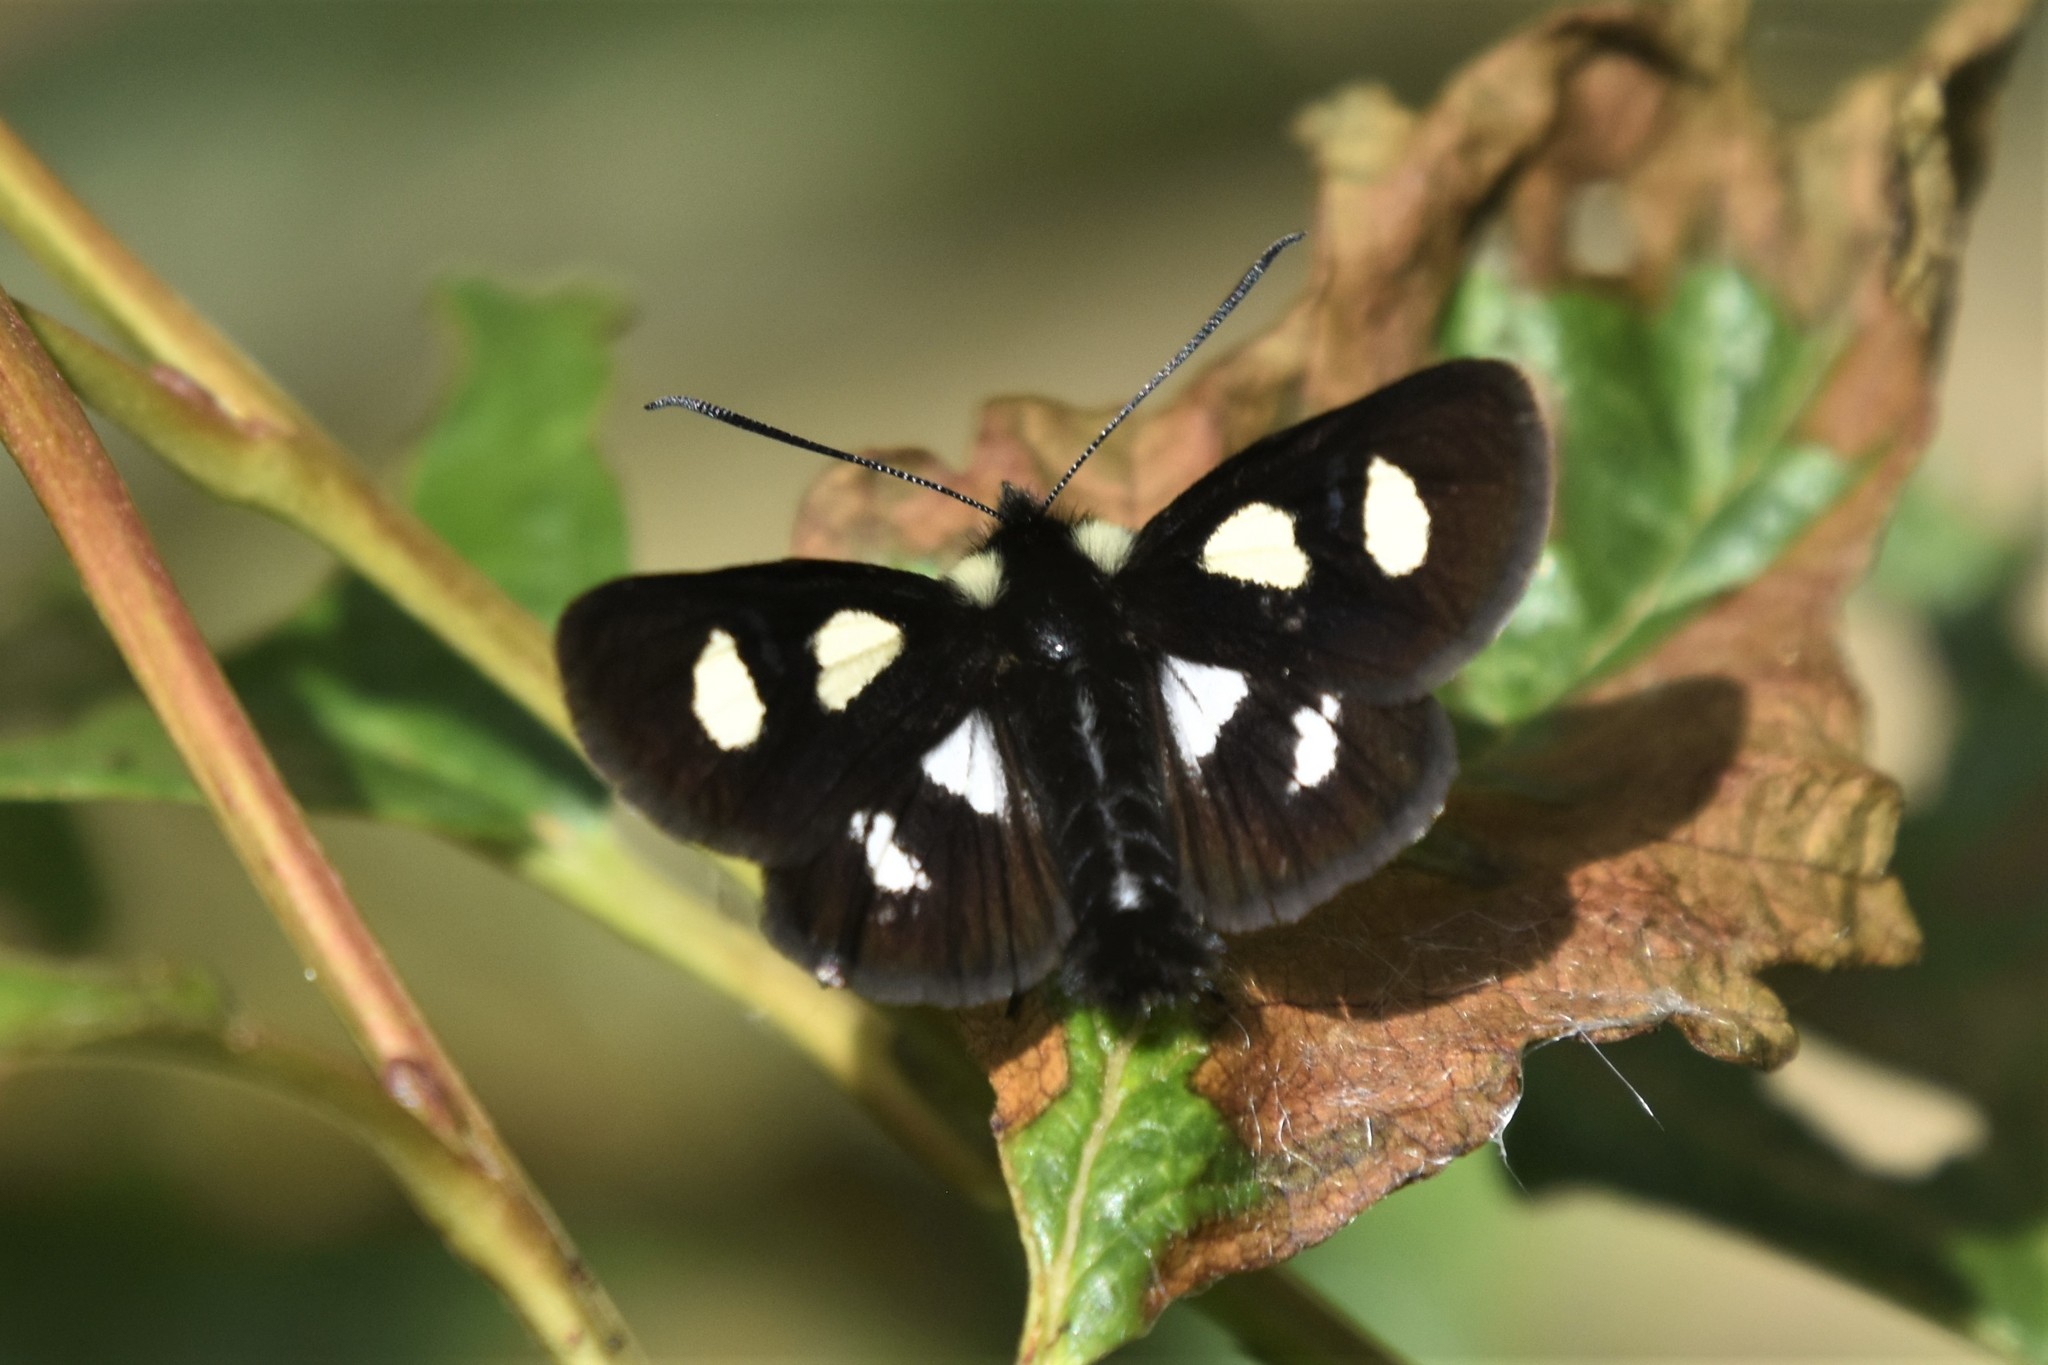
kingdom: Animalia
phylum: Arthropoda
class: Insecta
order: Lepidoptera
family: Noctuidae
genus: Alypia
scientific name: Alypia langtonii
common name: Fireweed caterpillar
